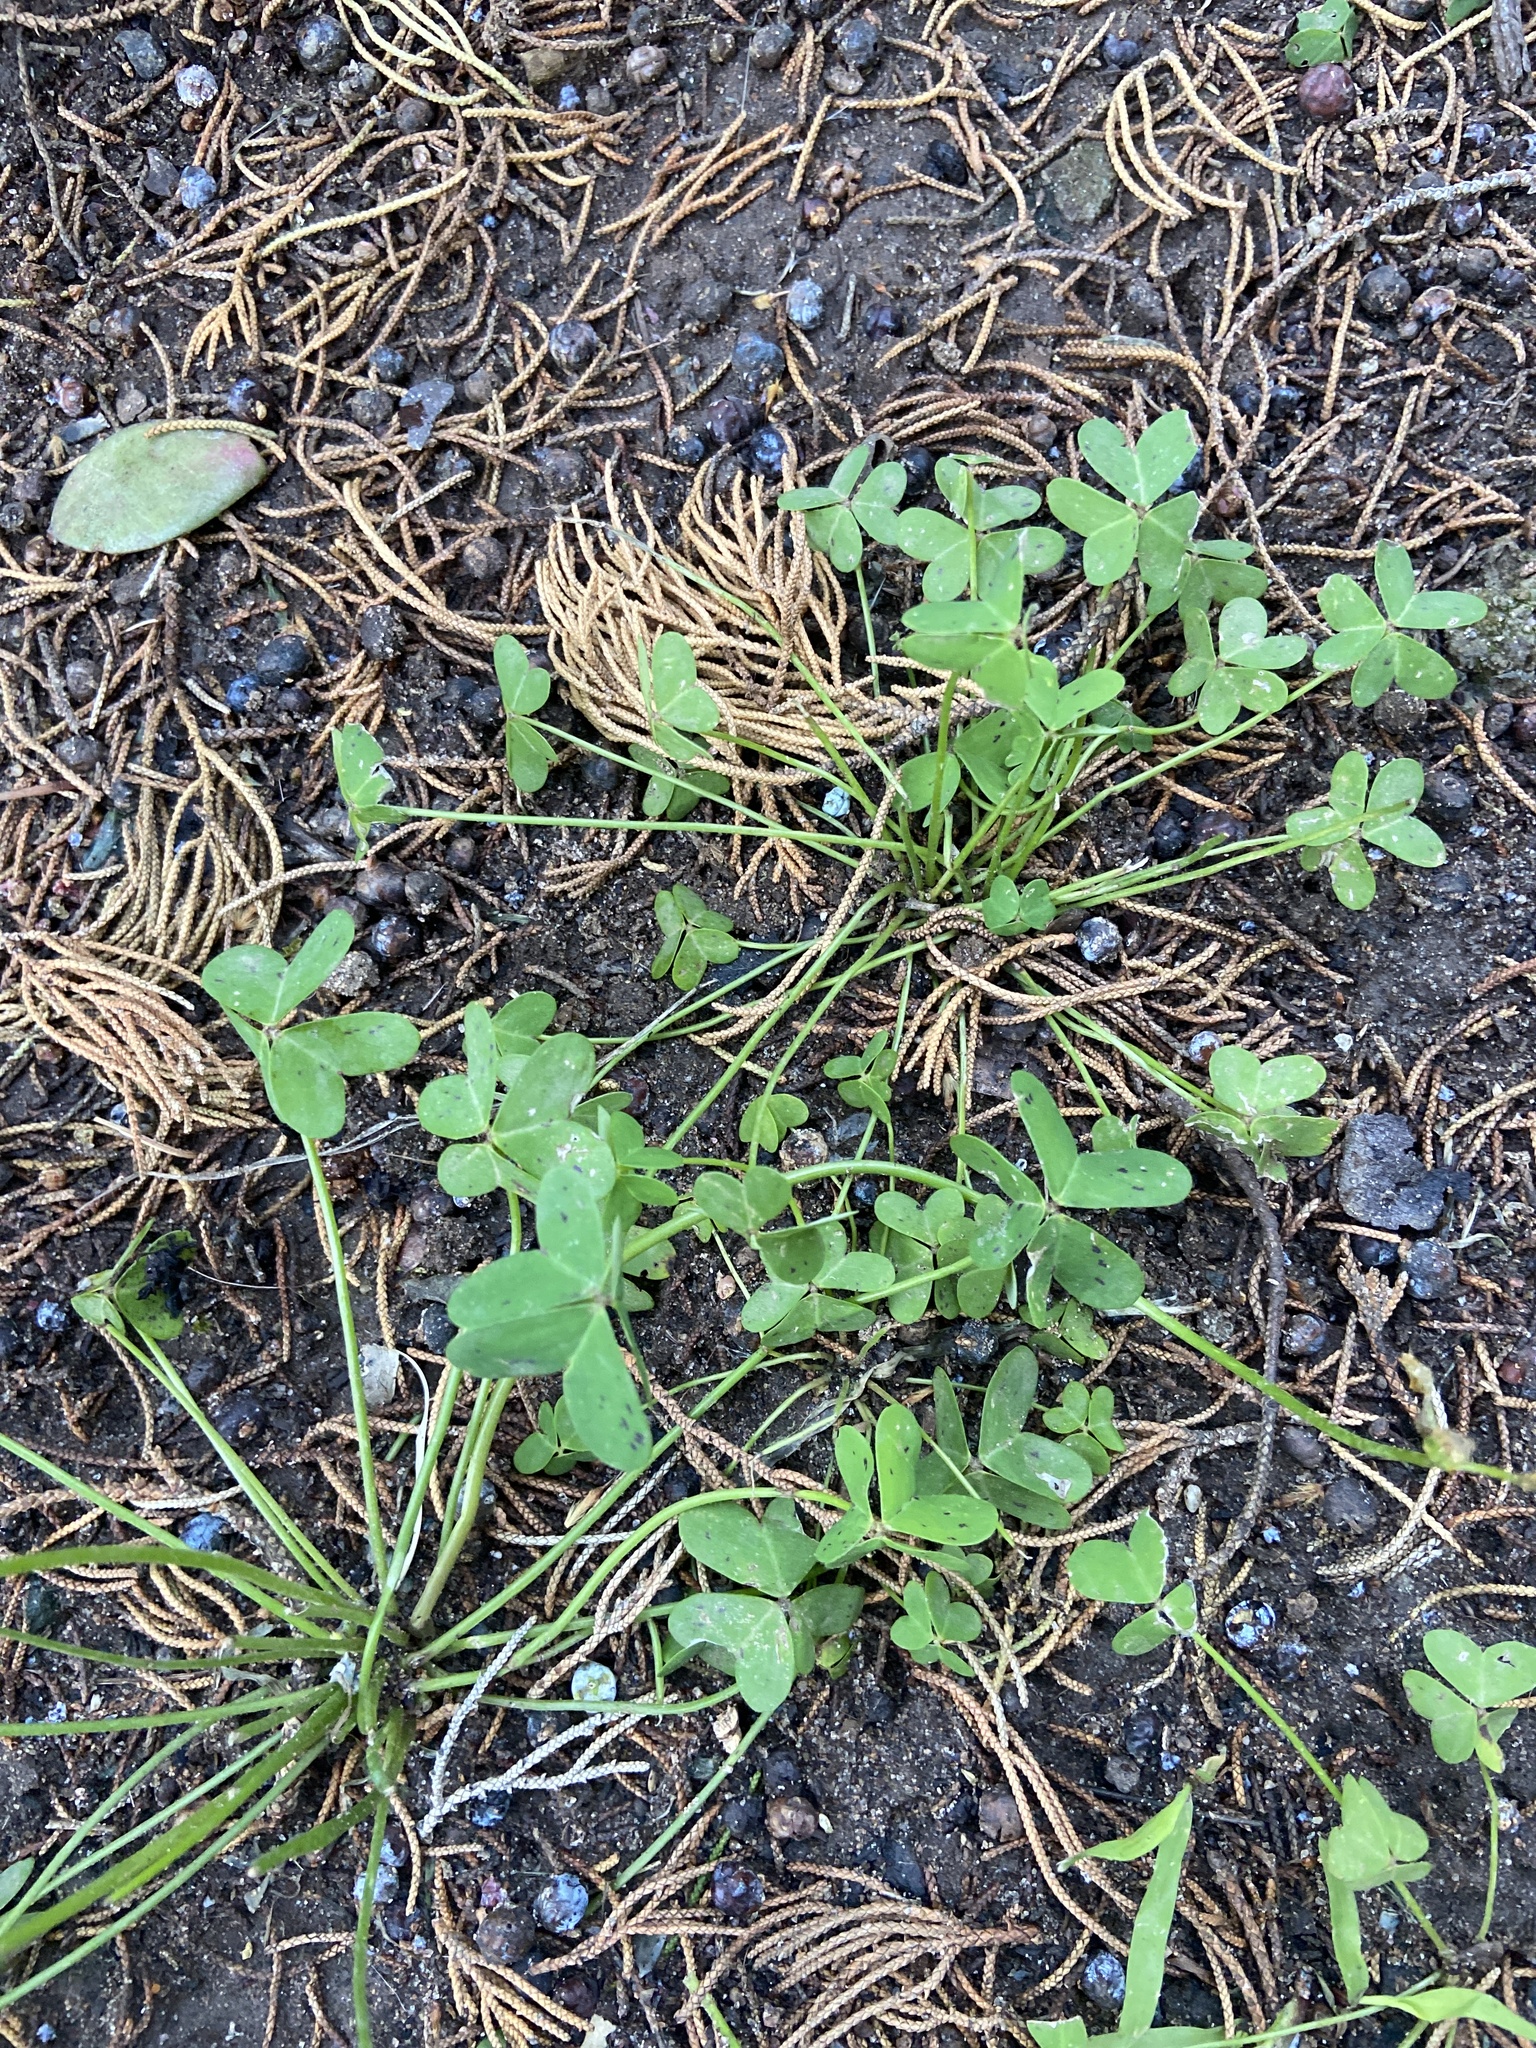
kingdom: Plantae
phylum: Tracheophyta
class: Magnoliopsida
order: Oxalidales
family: Oxalidaceae
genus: Oxalis
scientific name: Oxalis pes-caprae
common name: Bermuda-buttercup
